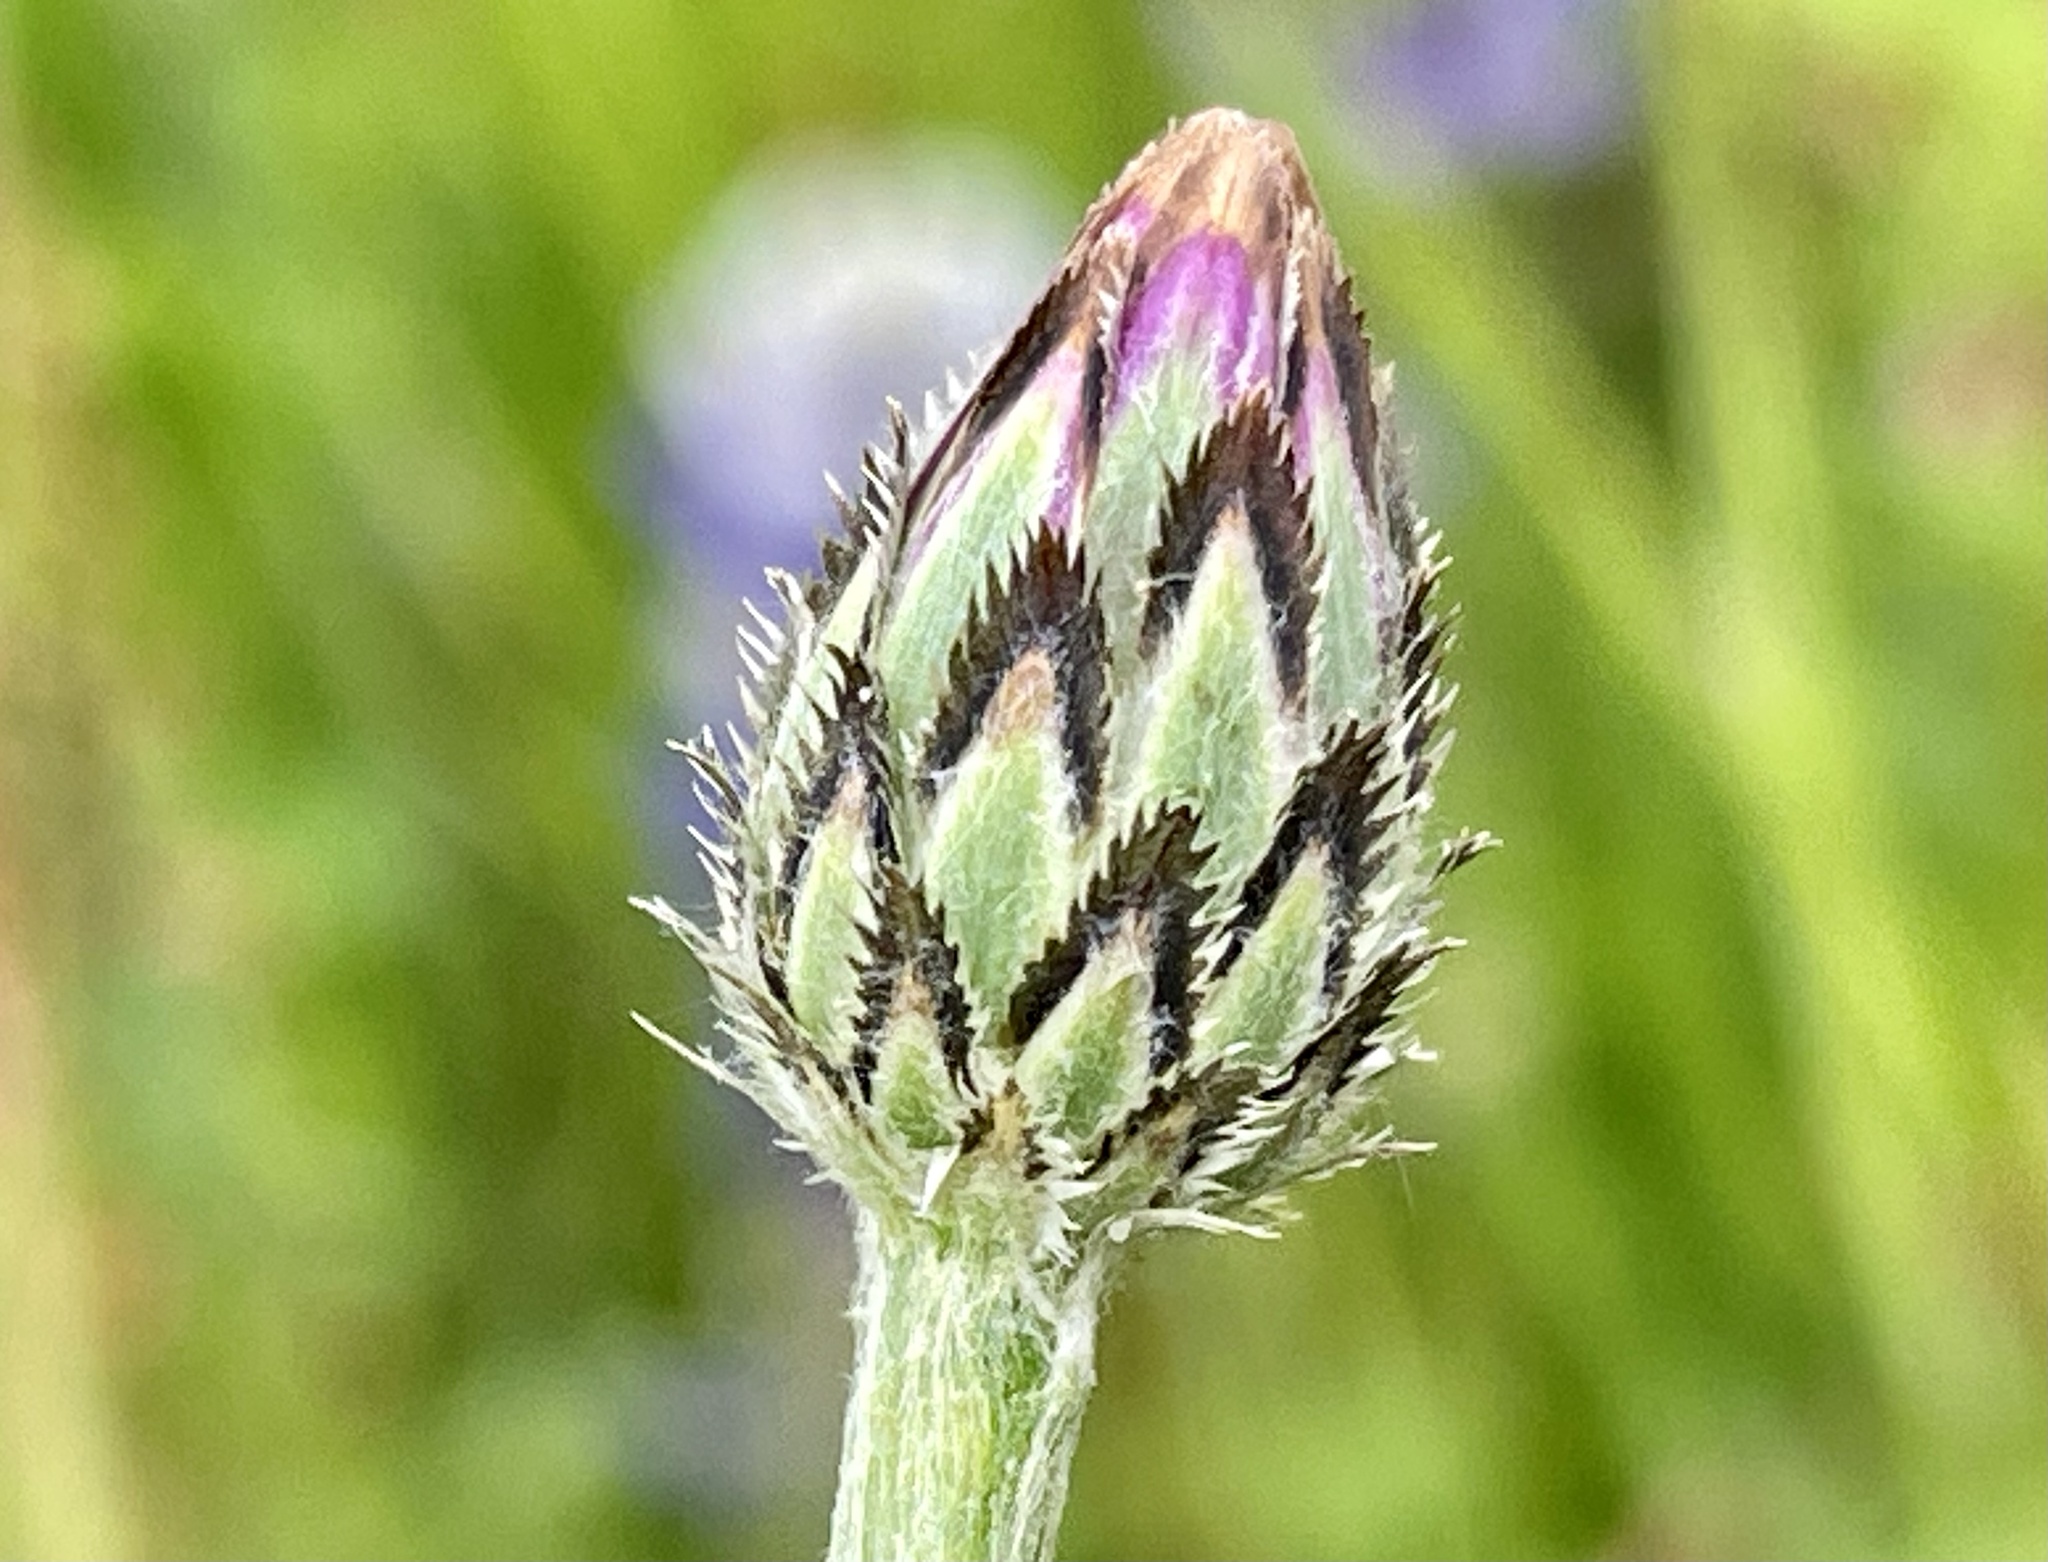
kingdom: Plantae
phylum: Tracheophyta
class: Magnoliopsida
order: Asterales
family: Asteraceae
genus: Centaurea
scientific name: Centaurea cyanus
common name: Cornflower
